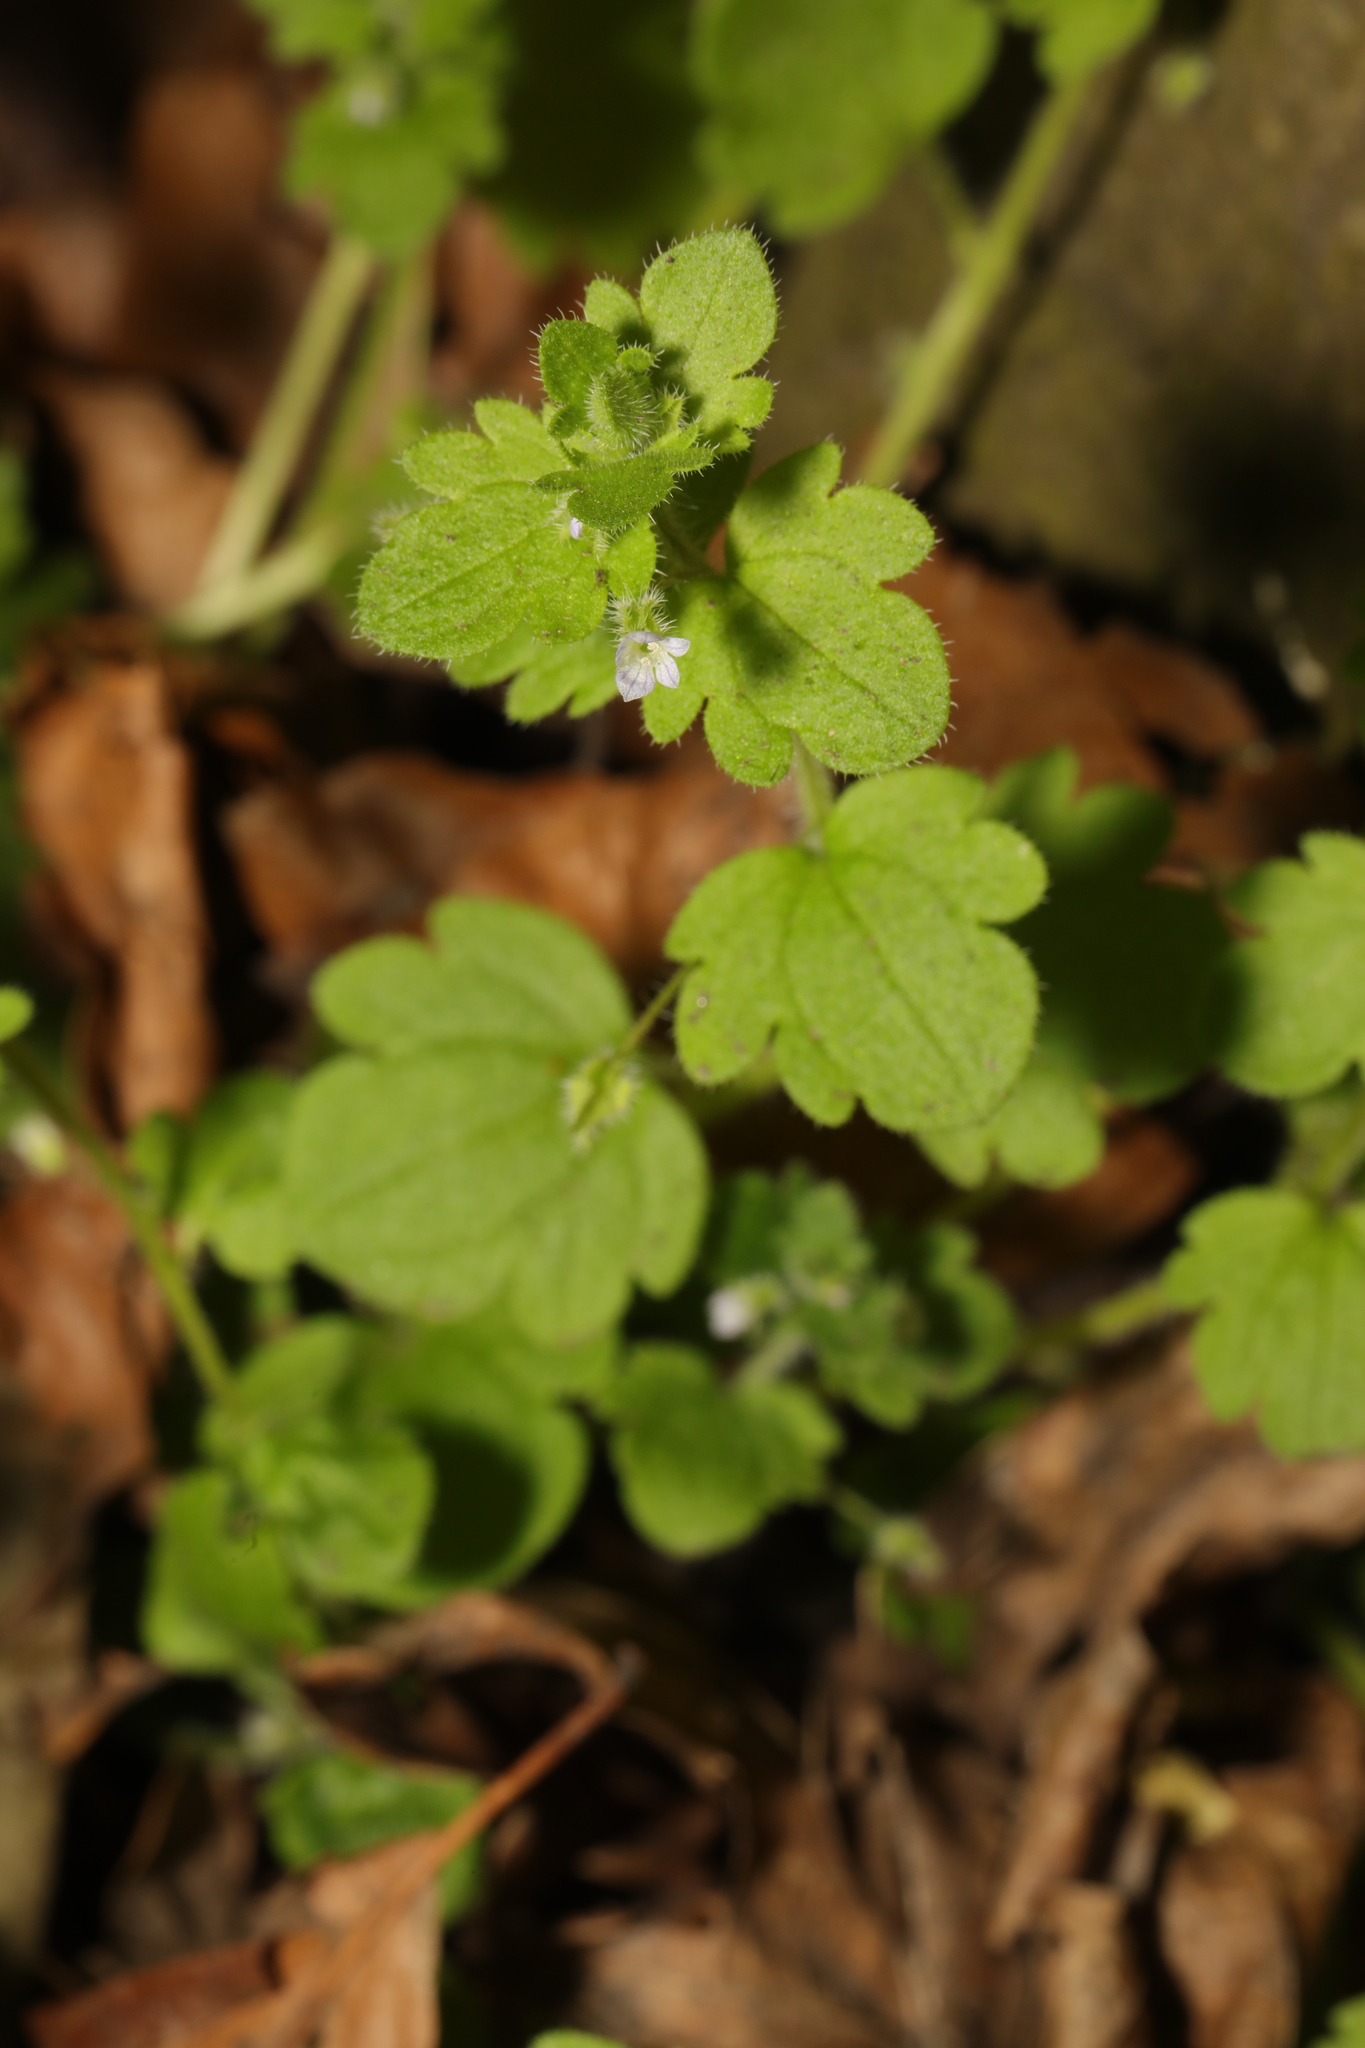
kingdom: Plantae
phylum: Tracheophyta
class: Magnoliopsida
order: Lamiales
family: Plantaginaceae
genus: Veronica
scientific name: Veronica sublobata
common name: False ivy-leaved speedwell
